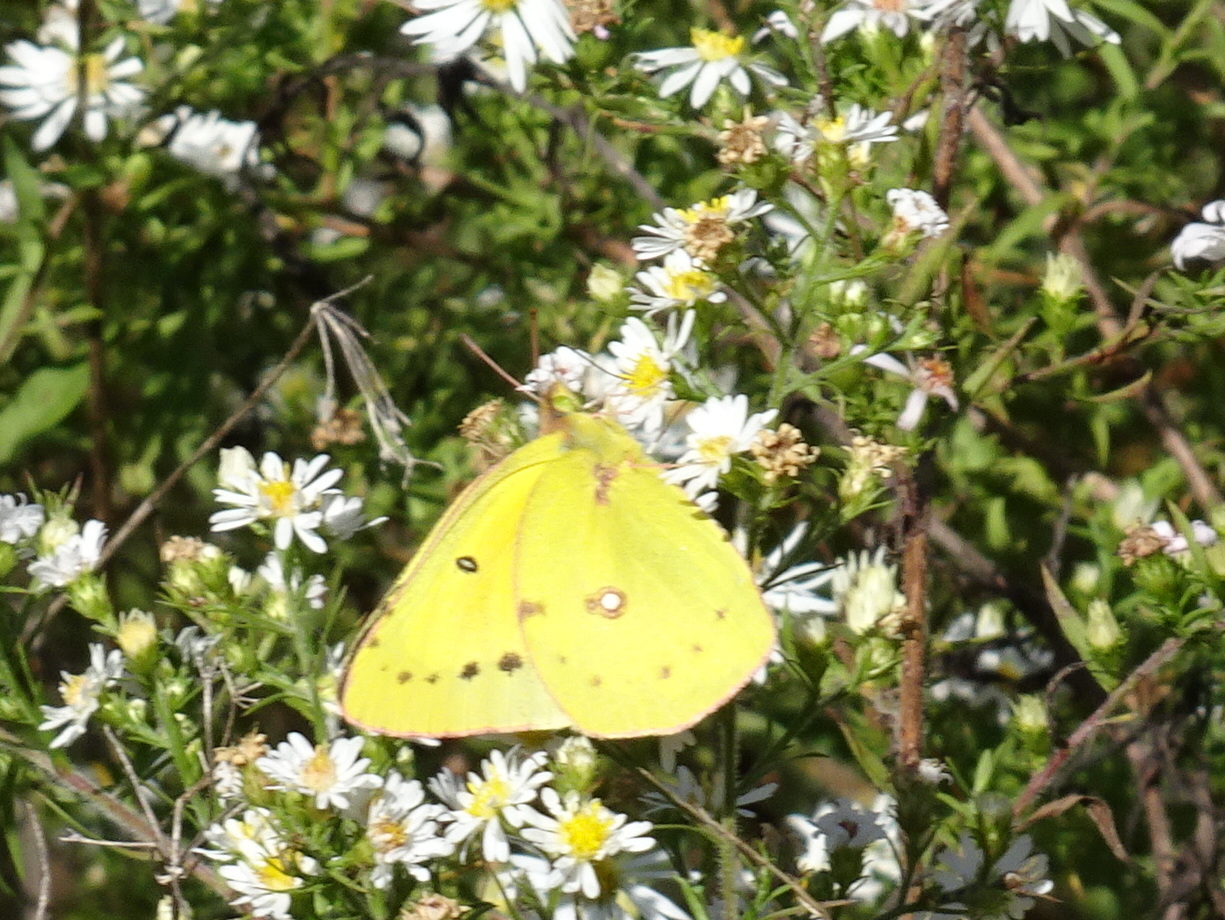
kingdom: Animalia
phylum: Arthropoda
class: Insecta
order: Lepidoptera
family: Pieridae
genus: Colias
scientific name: Colias eurytheme
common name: Alfalfa butterfly
